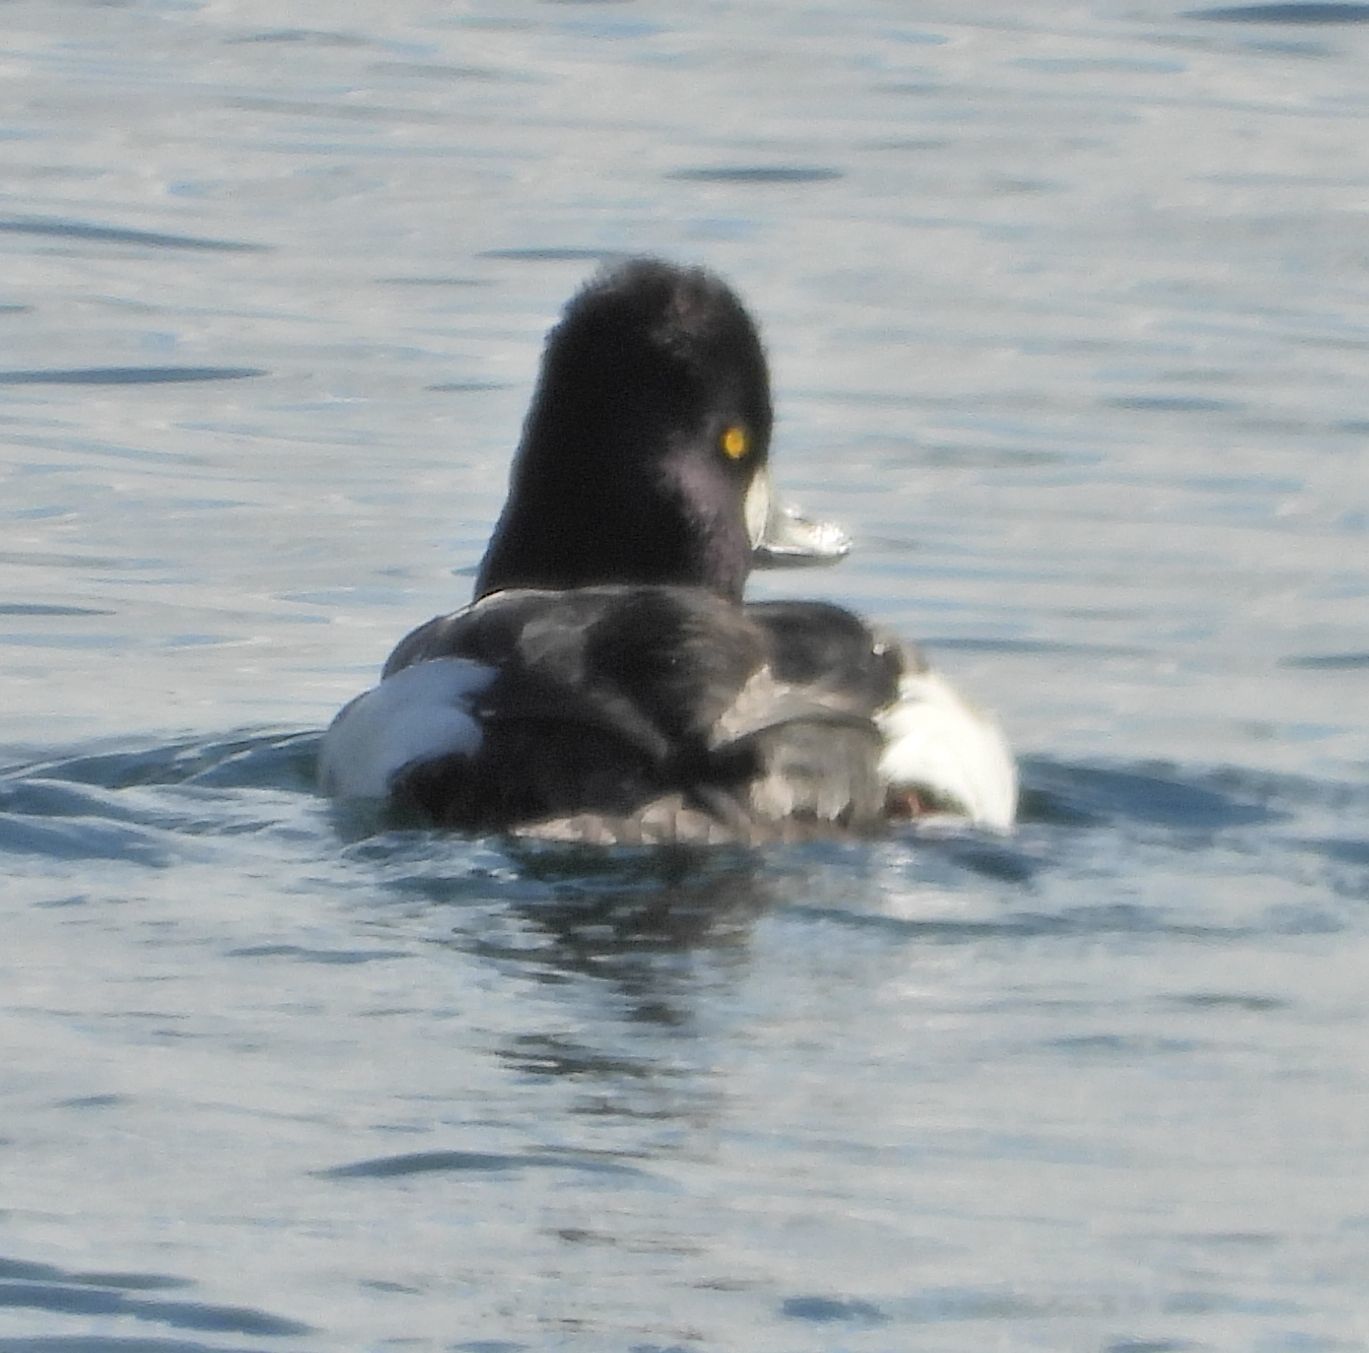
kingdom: Animalia
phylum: Chordata
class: Aves
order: Anseriformes
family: Anatidae
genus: Bucephala
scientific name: Bucephala clangula
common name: Common goldeneye
